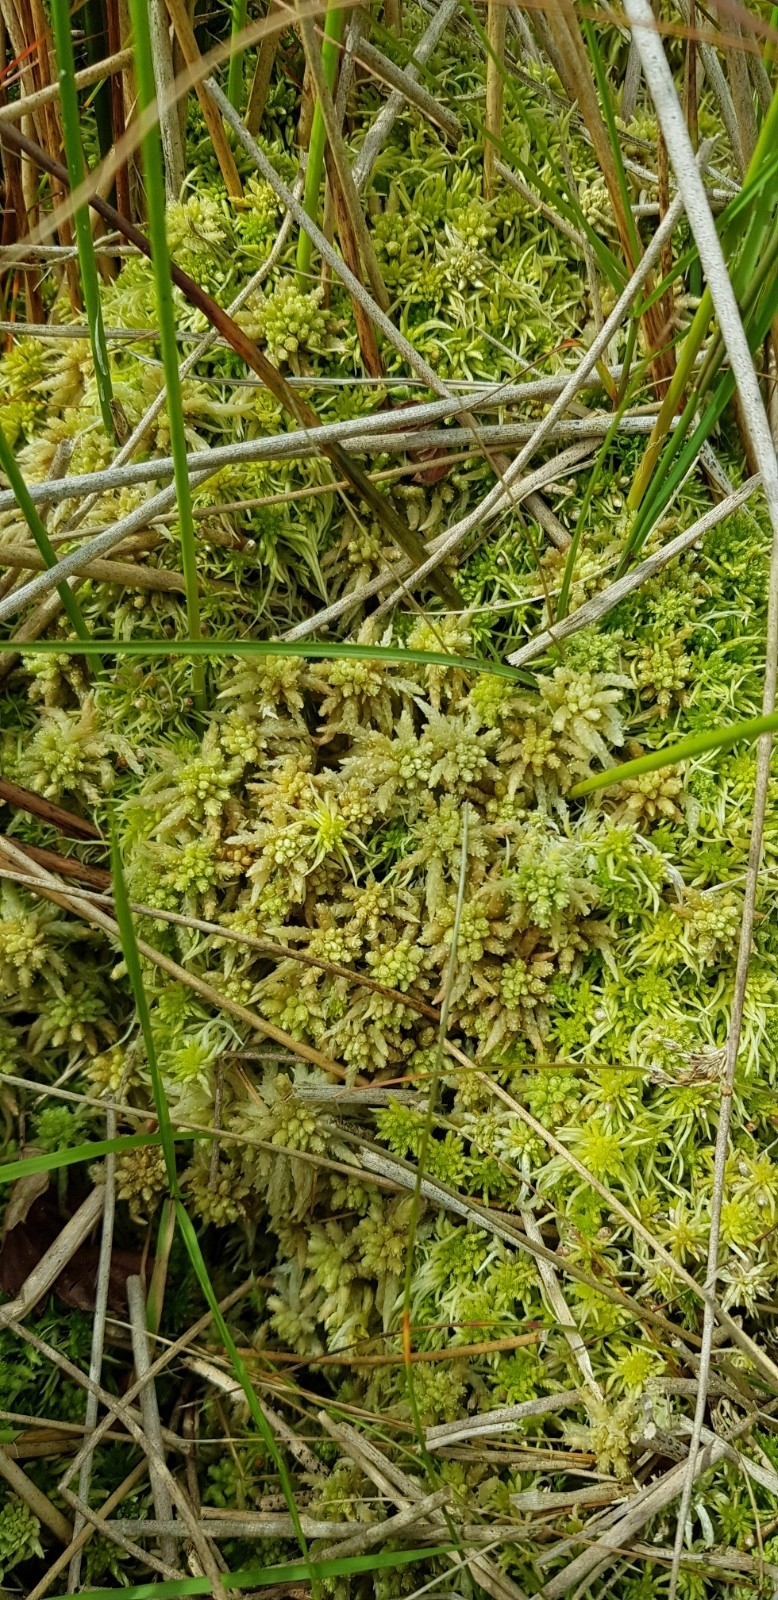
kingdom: Plantae
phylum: Bryophyta
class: Sphagnopsida
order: Sphagnales
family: Sphagnaceae
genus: Sphagnum
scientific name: Sphagnum palustre
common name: Blunt-leaved bog-moss
